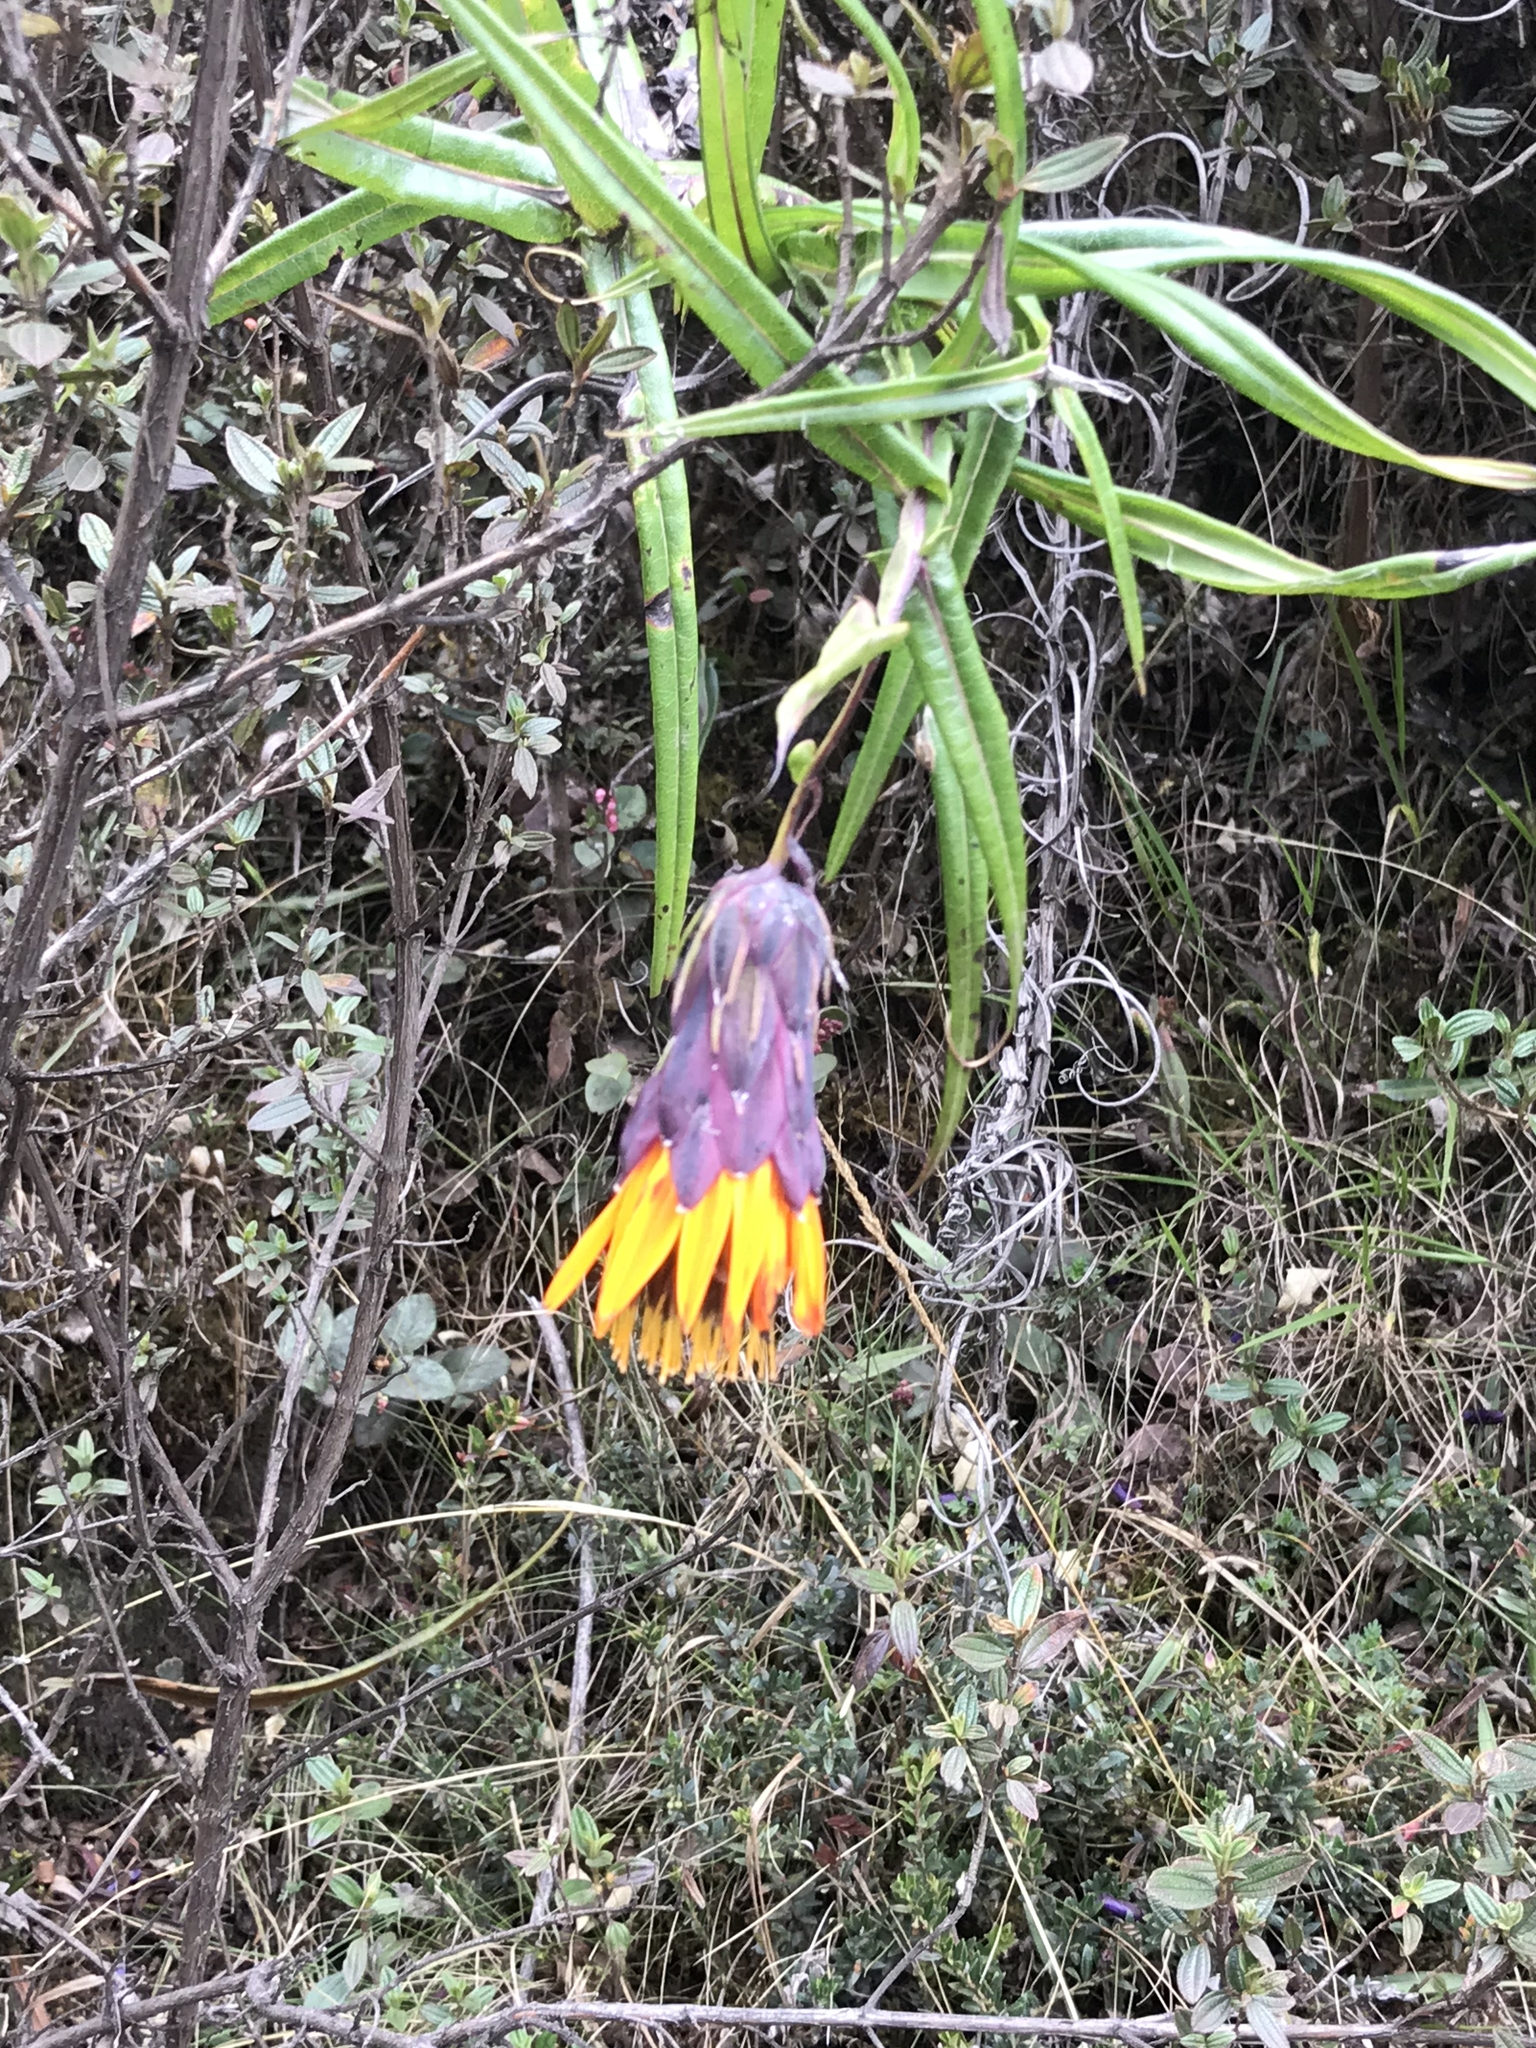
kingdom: Plantae
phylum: Tracheophyta
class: Magnoliopsida
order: Asterales
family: Asteraceae
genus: Mutisia
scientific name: Mutisia cochabambensis
